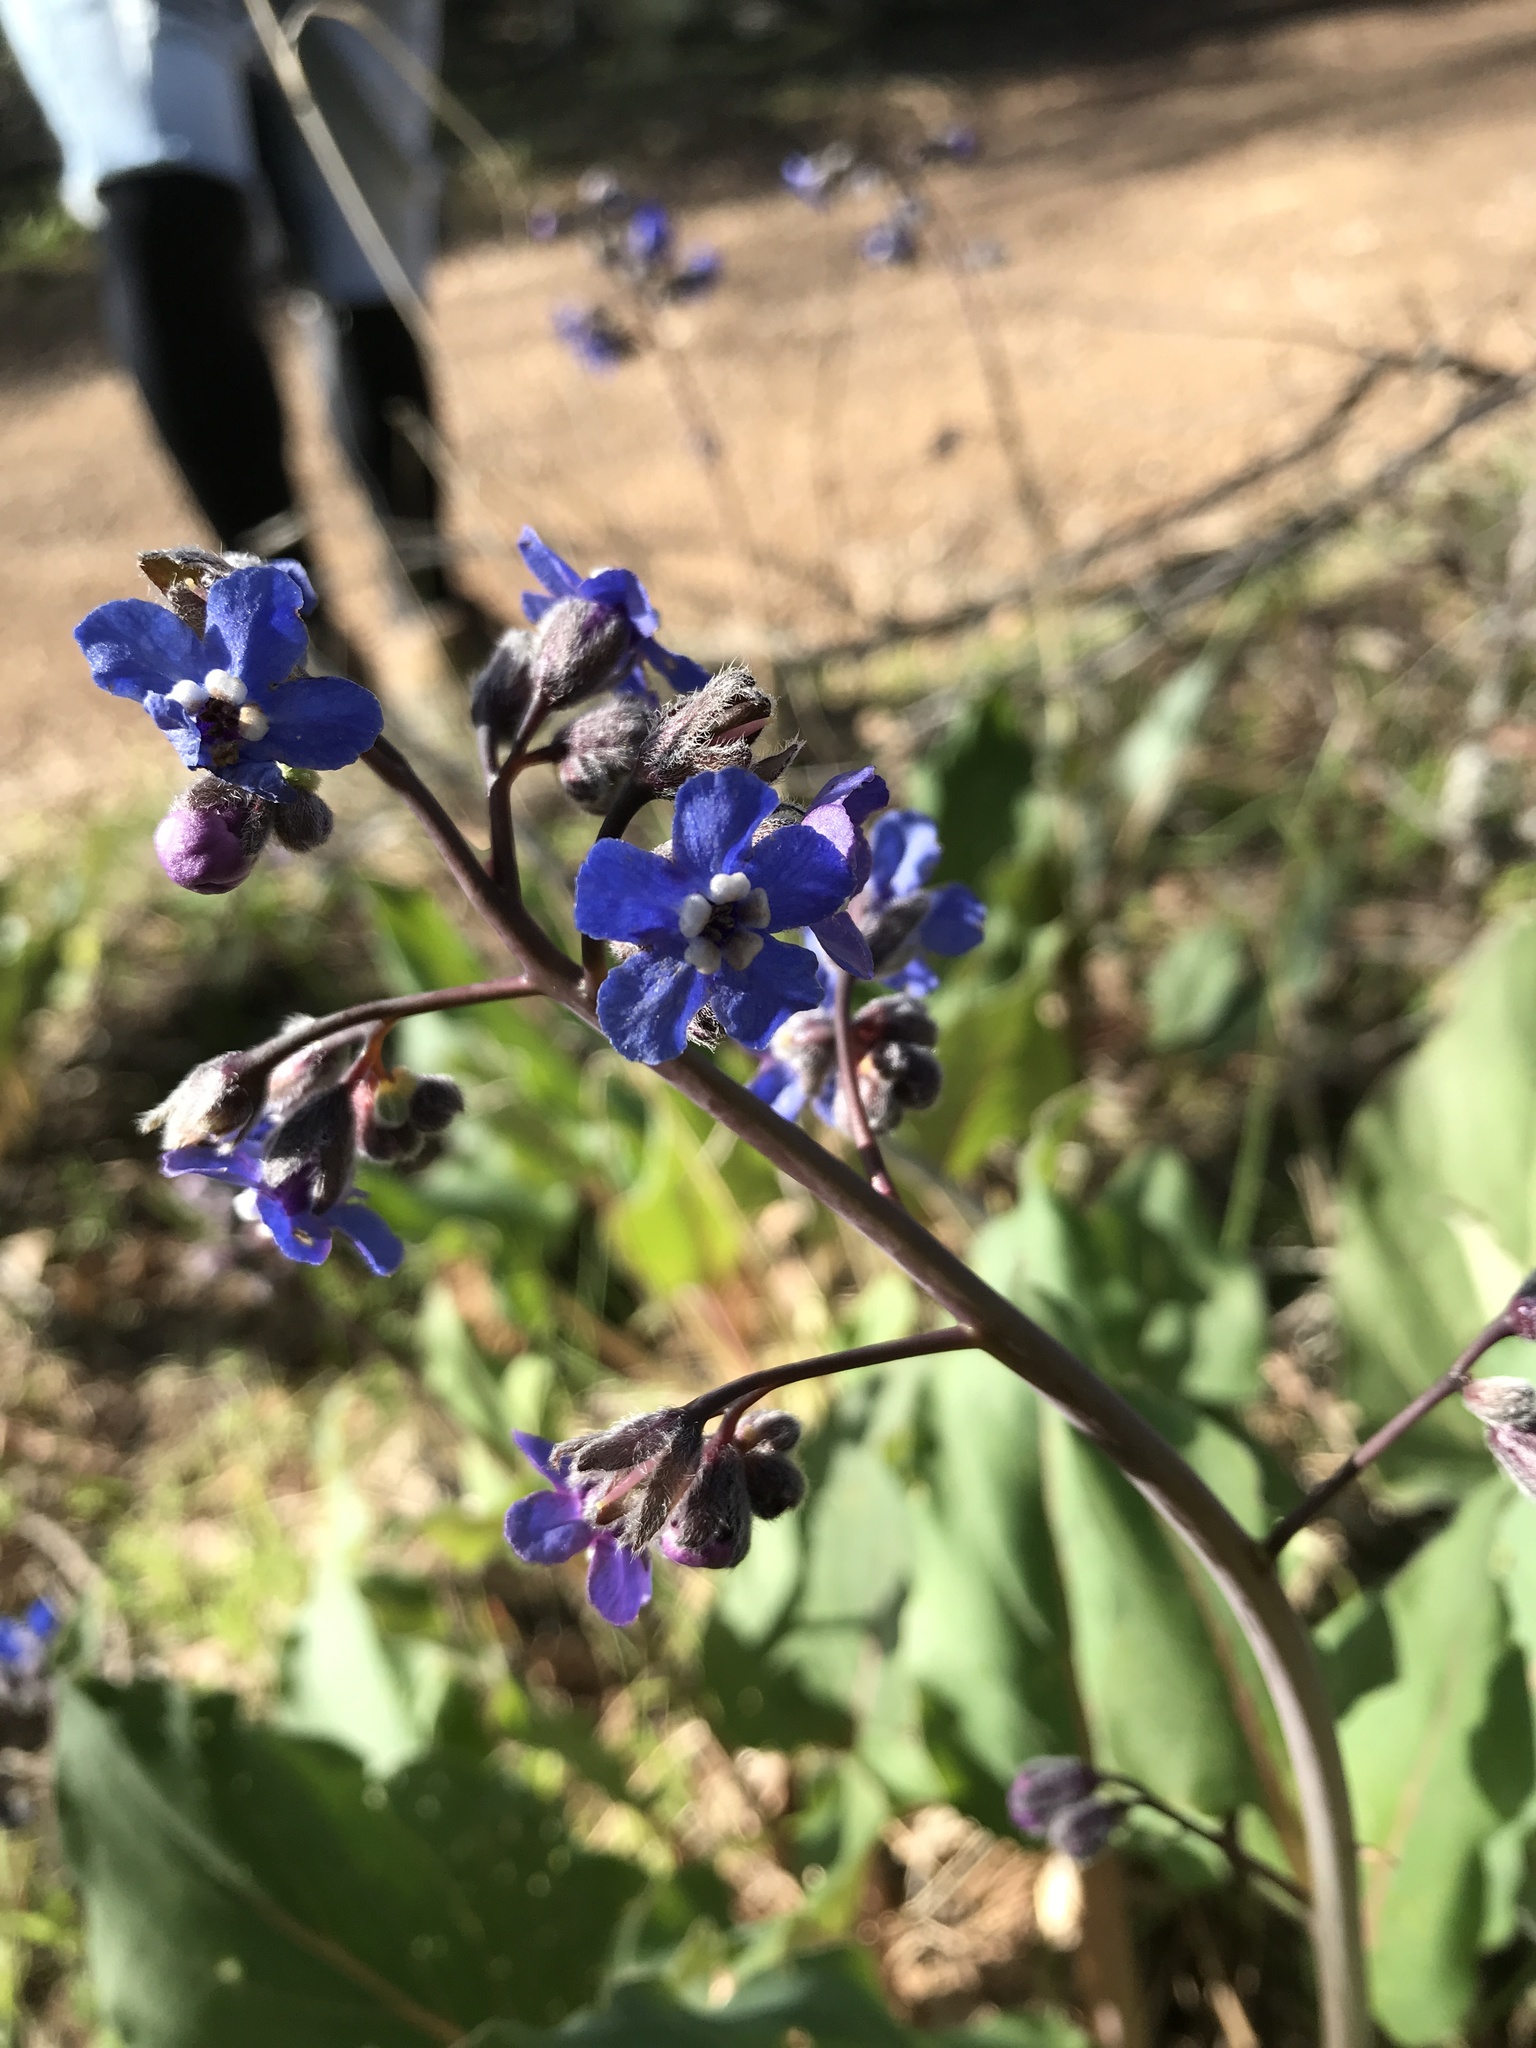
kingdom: Plantae
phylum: Tracheophyta
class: Magnoliopsida
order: Boraginales
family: Boraginaceae
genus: Adelinia
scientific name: Adelinia grande
